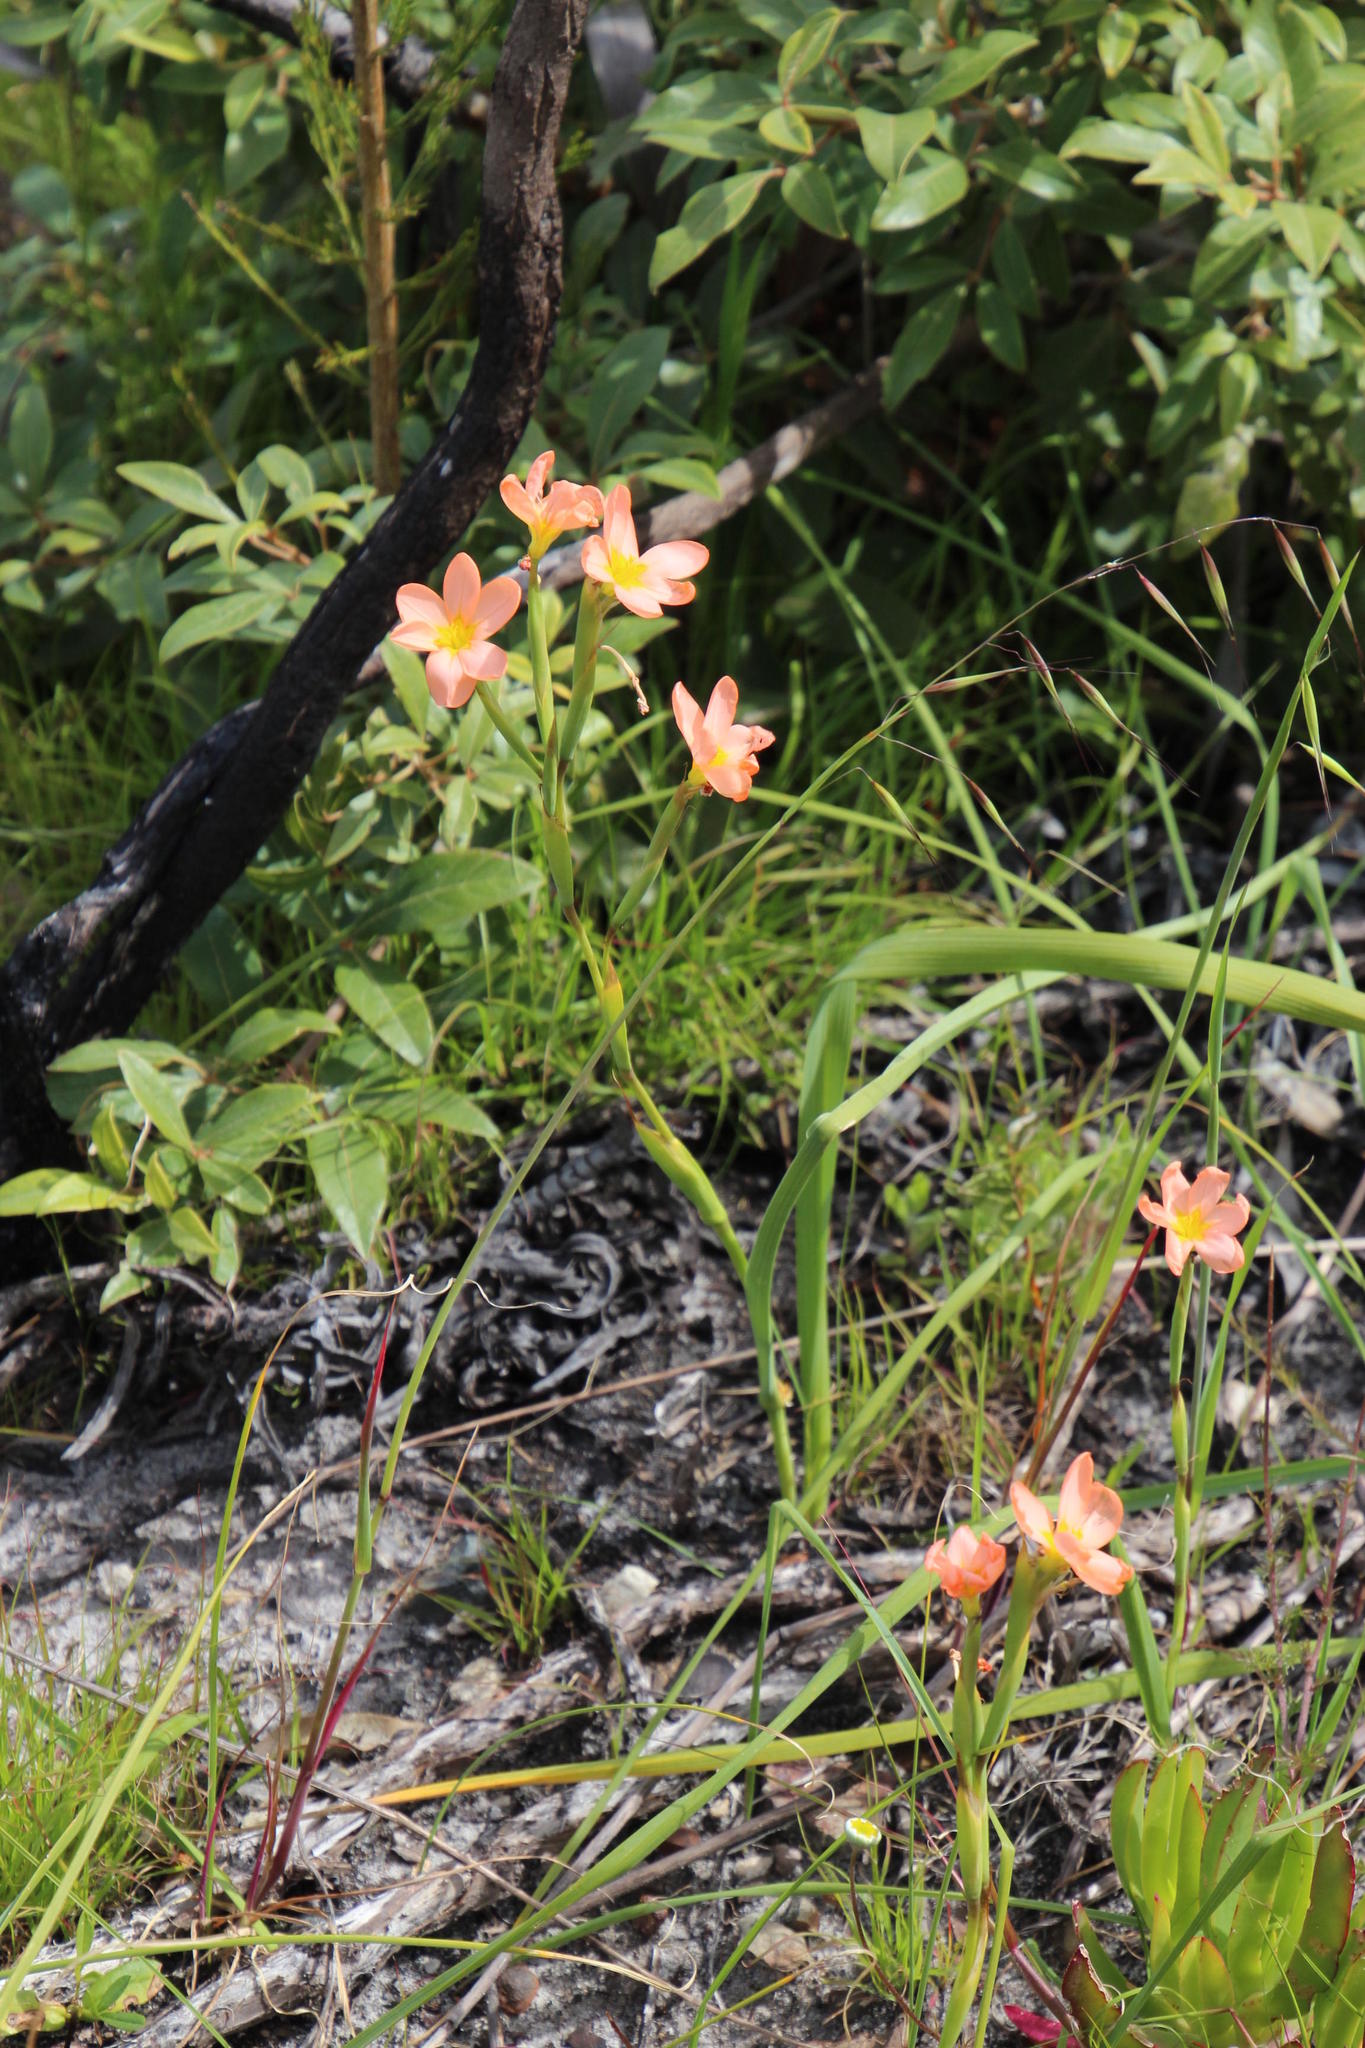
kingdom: Plantae
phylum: Tracheophyta
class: Liliopsida
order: Asparagales
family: Iridaceae
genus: Moraea
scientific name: Moraea miniata
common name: Two-leaf cape-tulip
